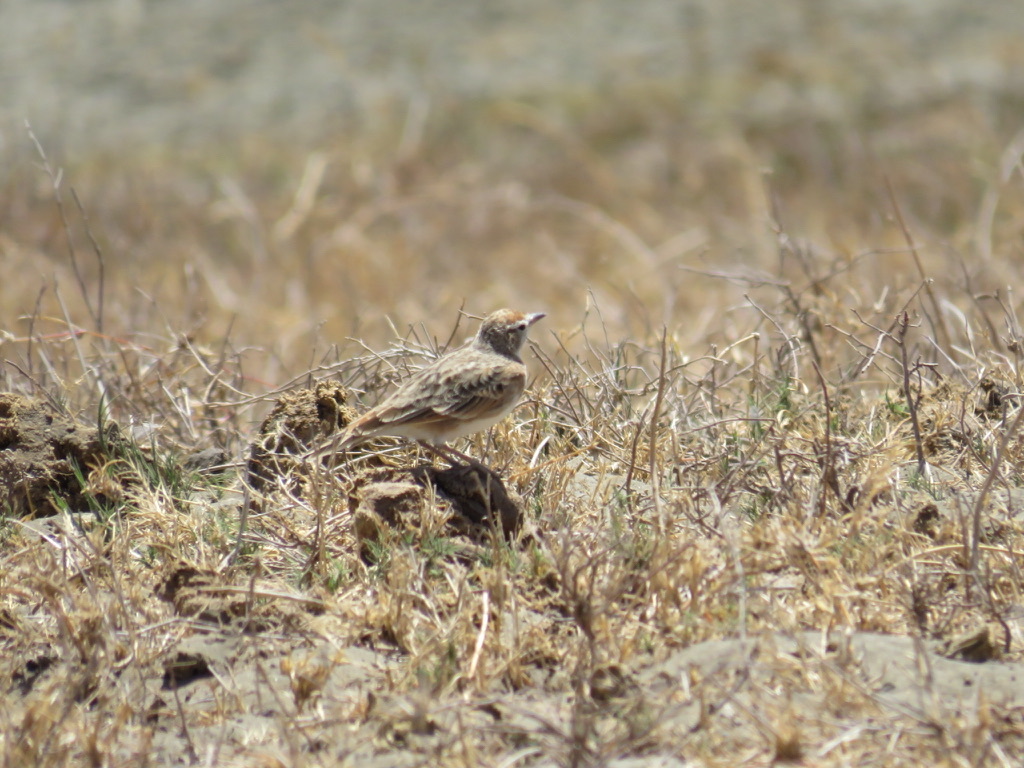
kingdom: Animalia
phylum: Chordata
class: Aves
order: Passeriformes
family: Alaudidae
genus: Calandrella
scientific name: Calandrella cinerea
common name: Red-capped lark
